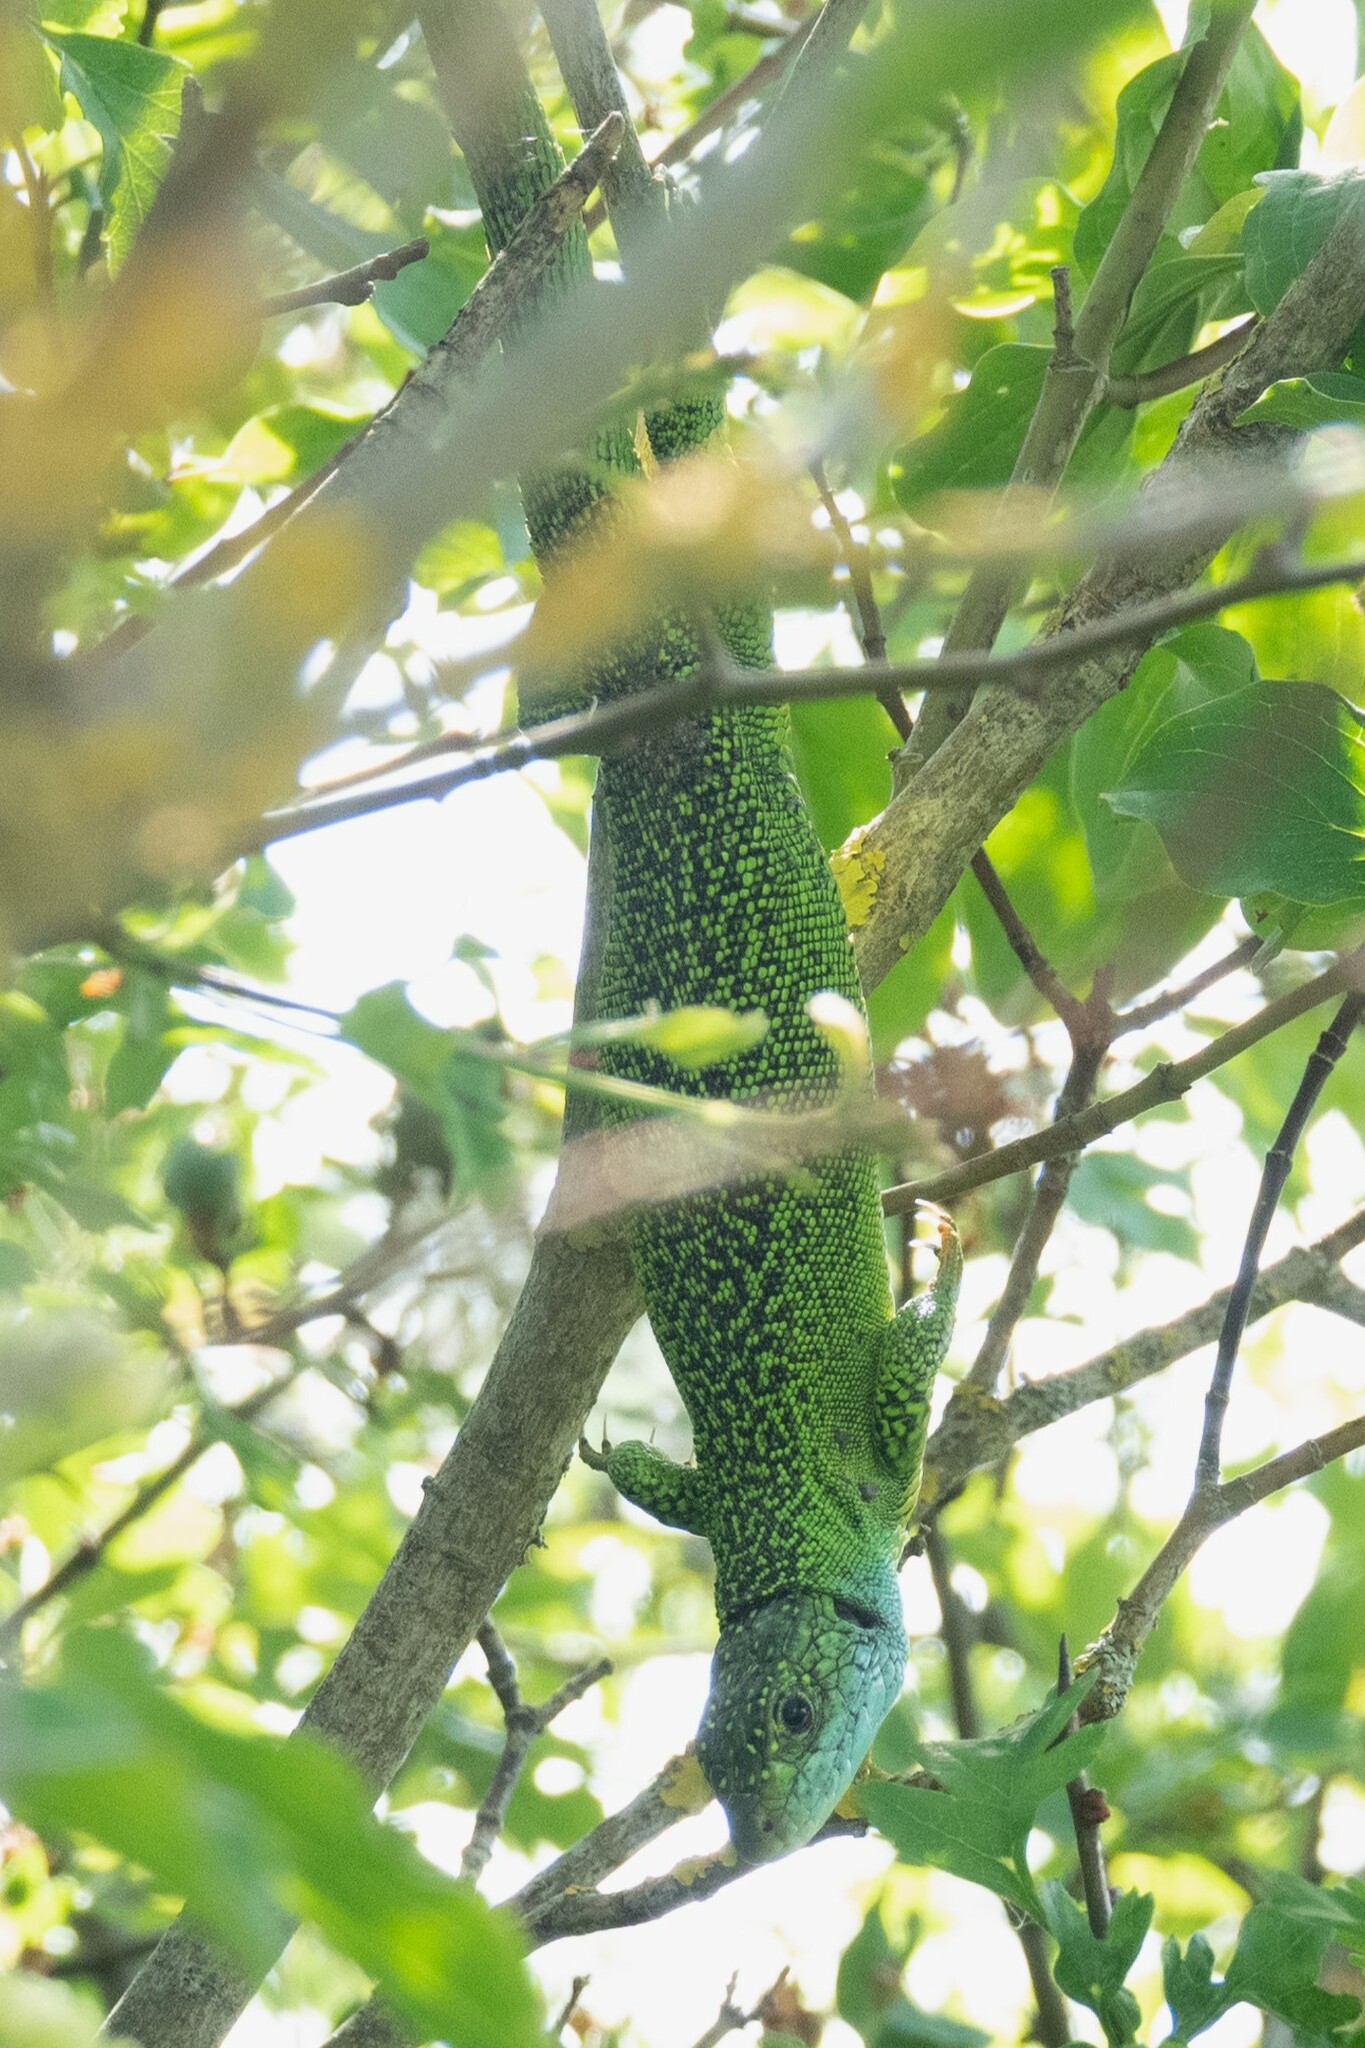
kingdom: Animalia
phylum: Chordata
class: Squamata
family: Lacertidae
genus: Lacerta
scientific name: Lacerta bilineata
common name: Western green lizard
